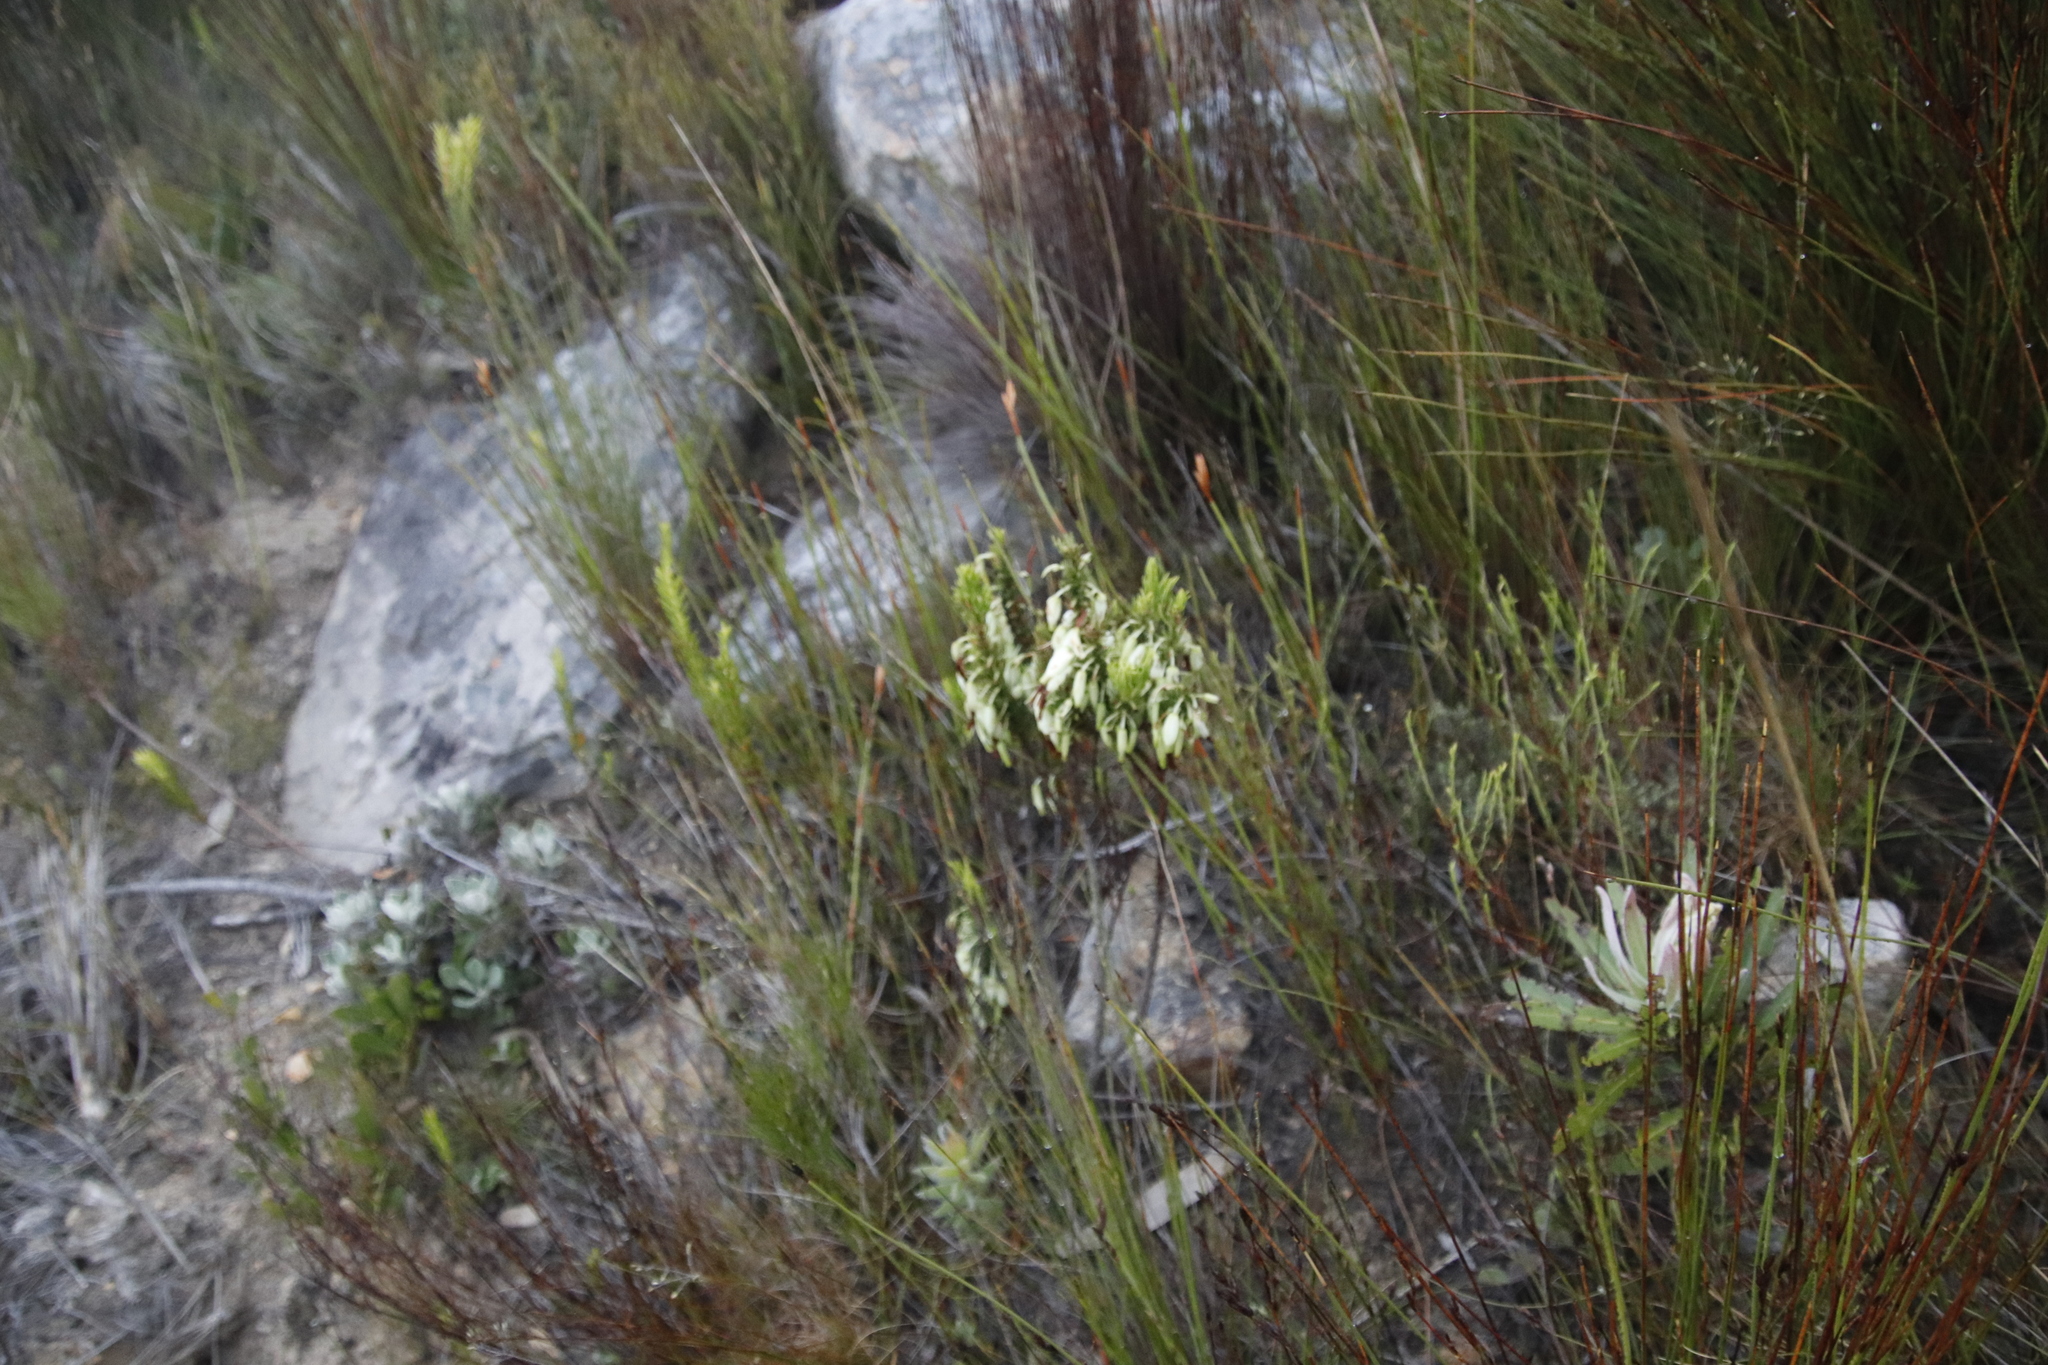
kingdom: Plantae
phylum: Tracheophyta
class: Magnoliopsida
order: Ericales
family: Ericaceae
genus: Erica
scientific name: Erica plukenetii
